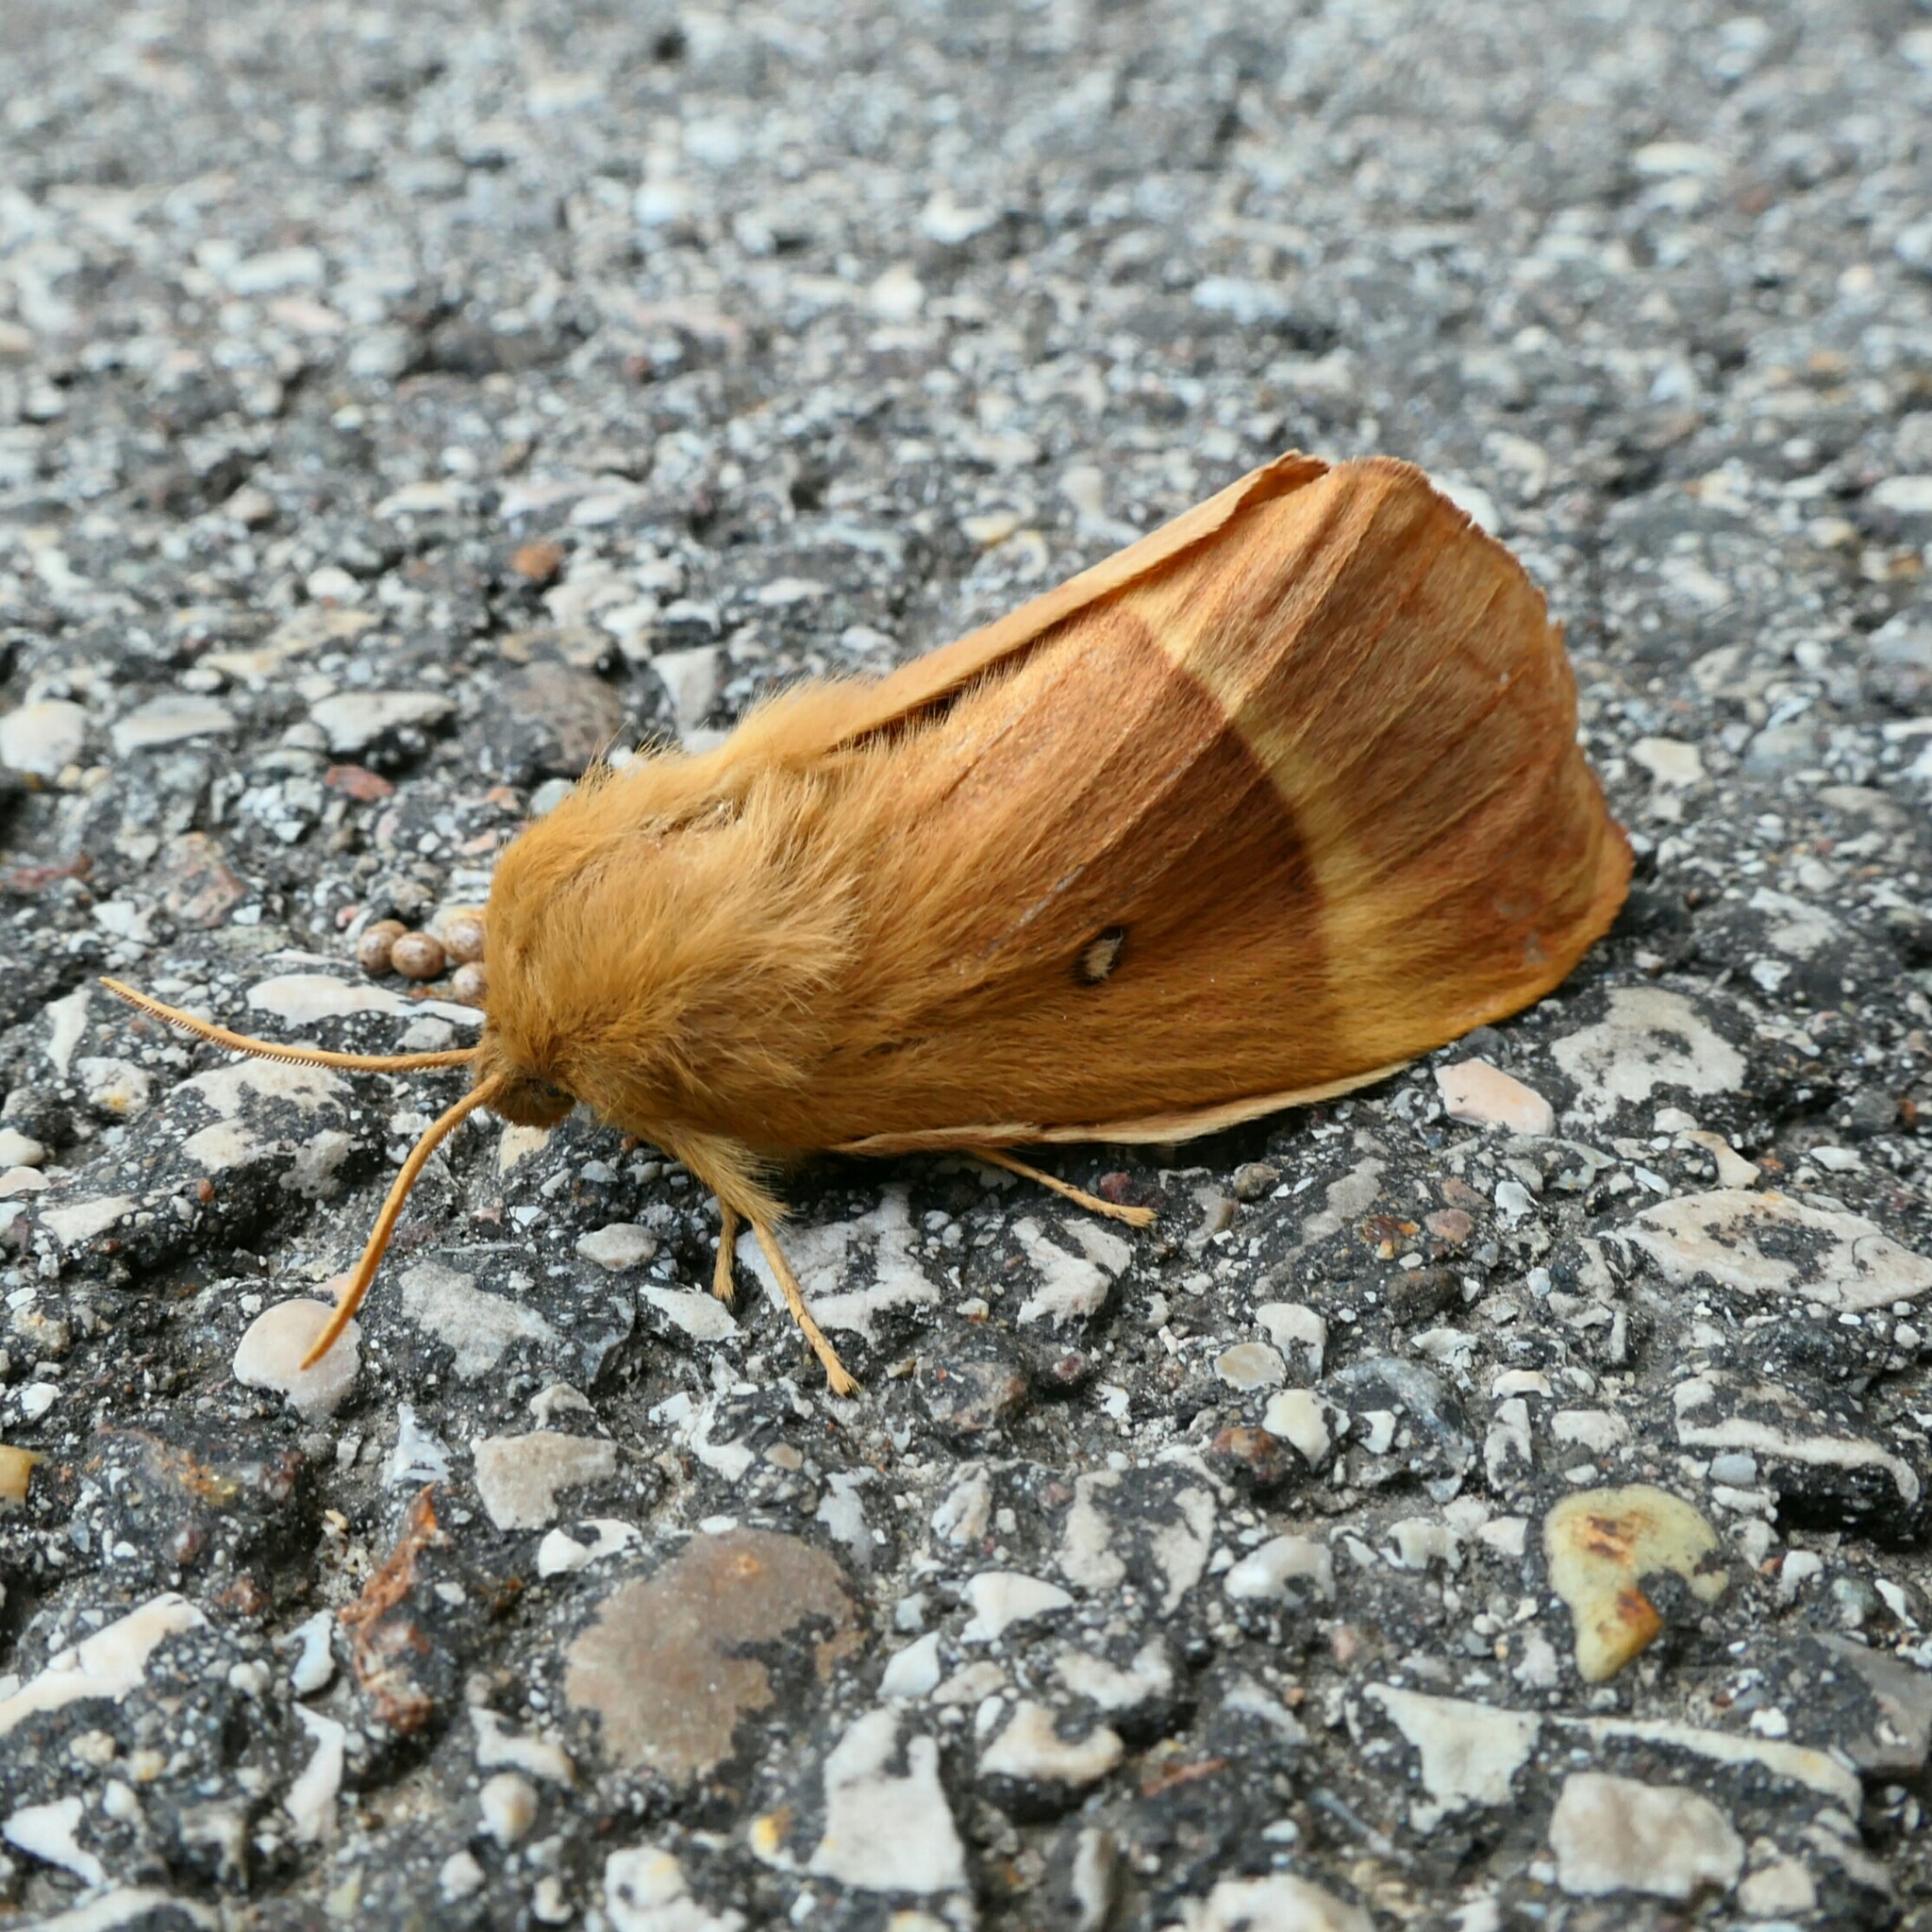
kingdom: Animalia
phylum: Arthropoda
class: Insecta
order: Lepidoptera
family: Lasiocampidae
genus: Lasiocampa
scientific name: Lasiocampa quercus
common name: Oak eggar
